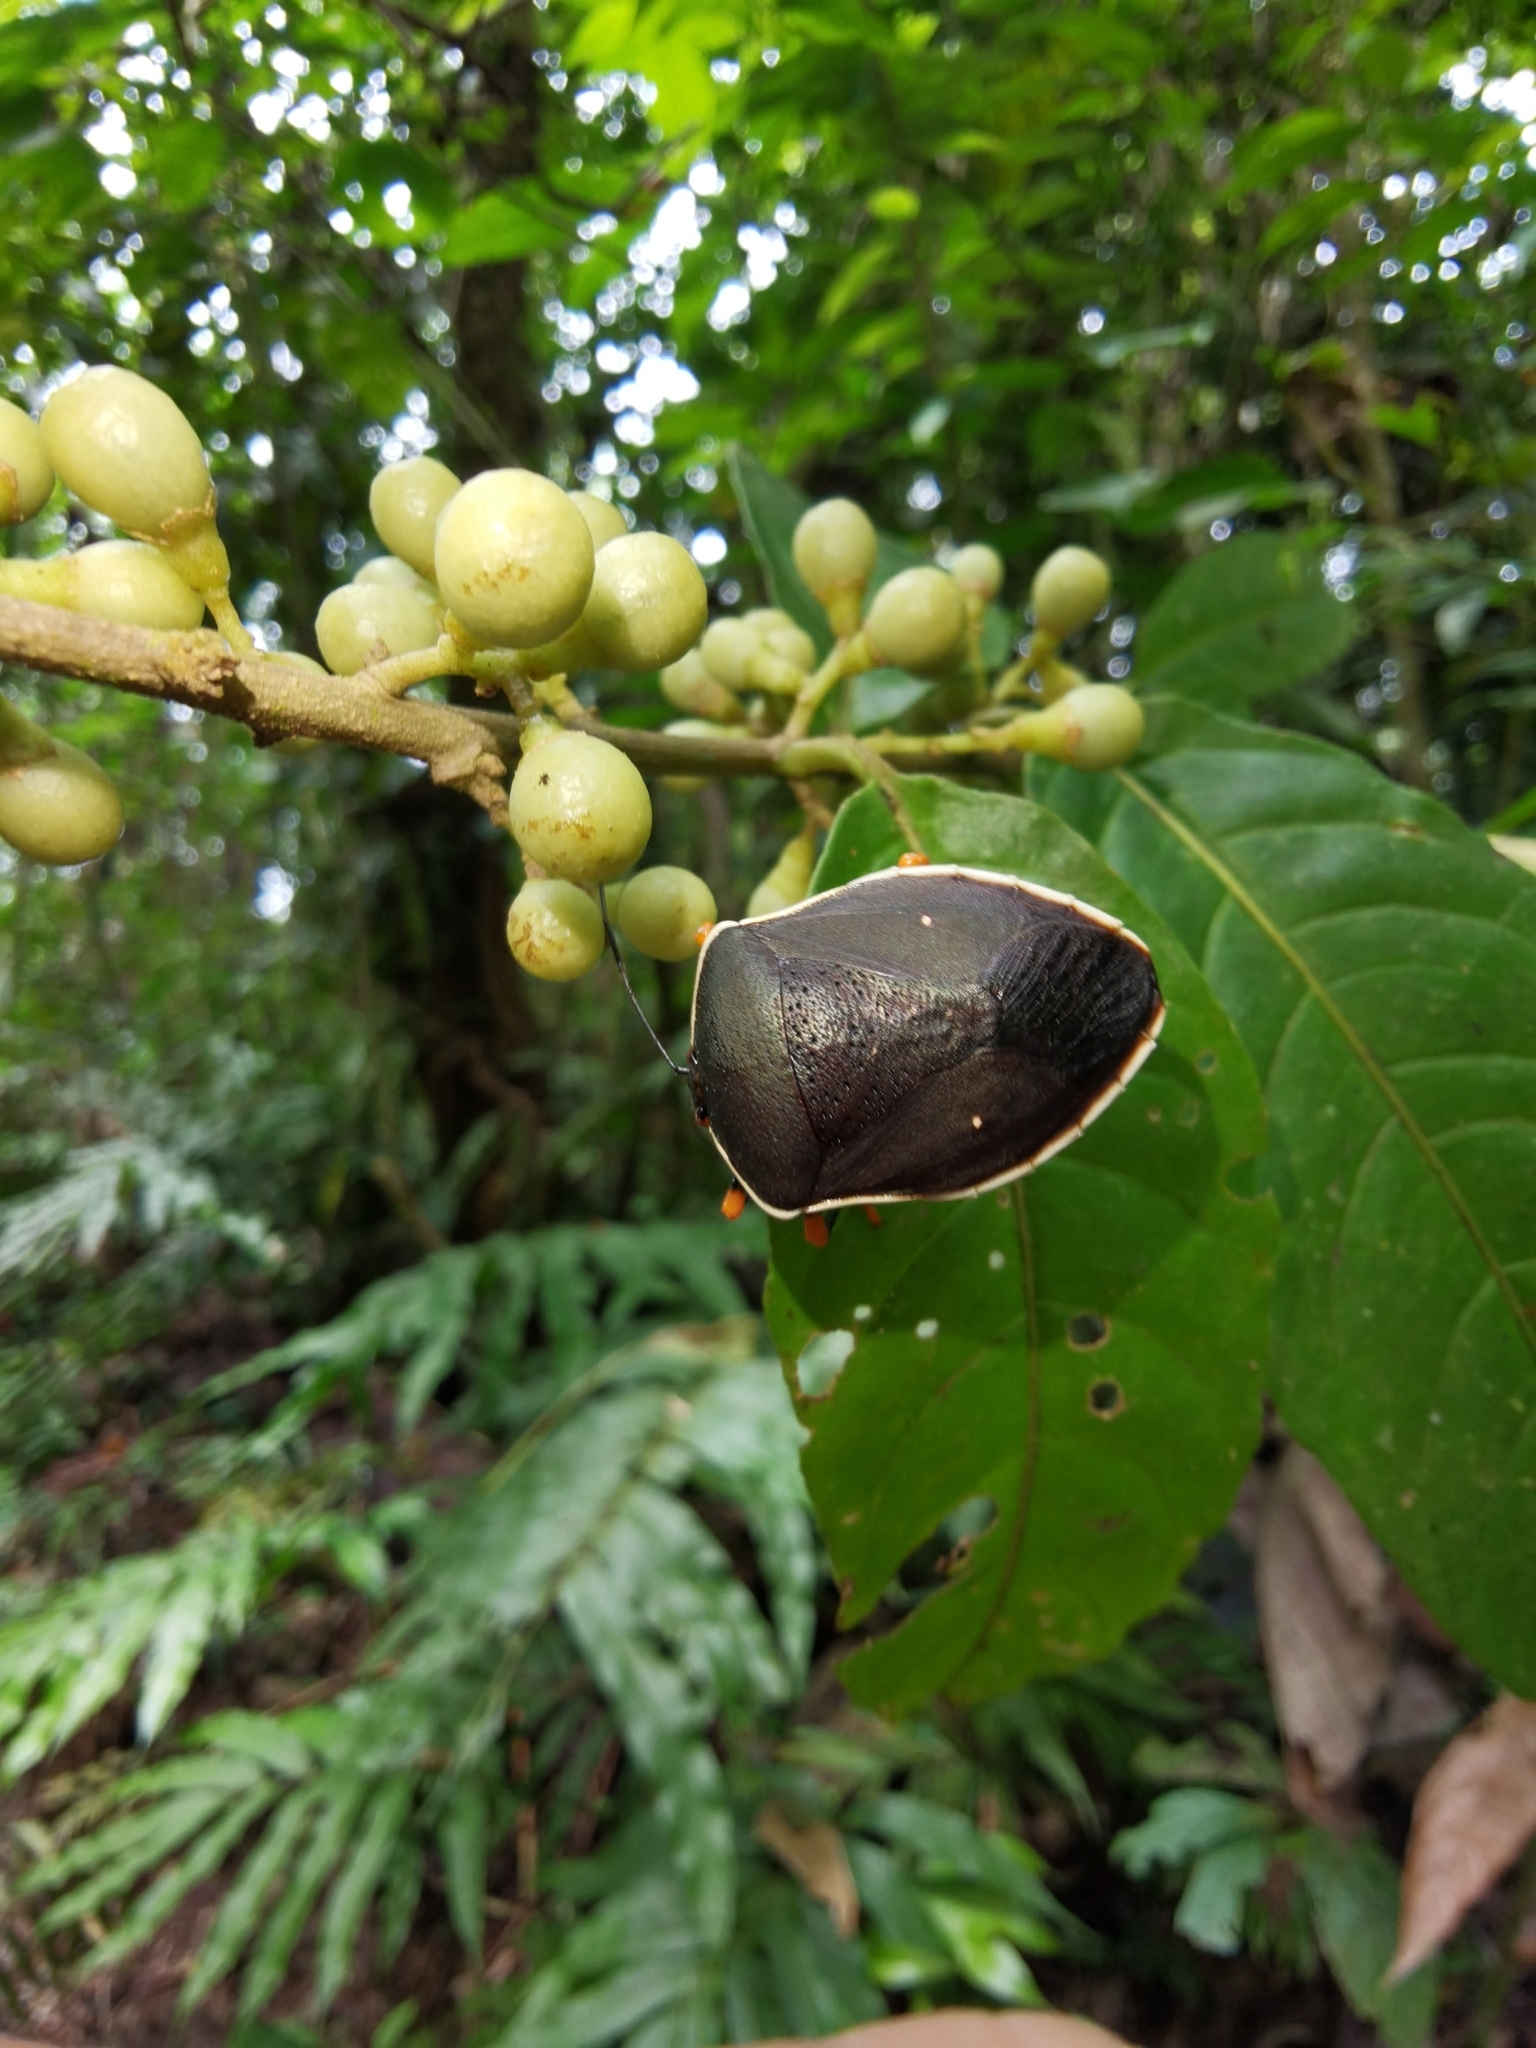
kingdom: Animalia
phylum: Arthropoda
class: Insecta
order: Hemiptera
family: Pentatomidae
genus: Brachystethus
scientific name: Brachystethus improvisus
